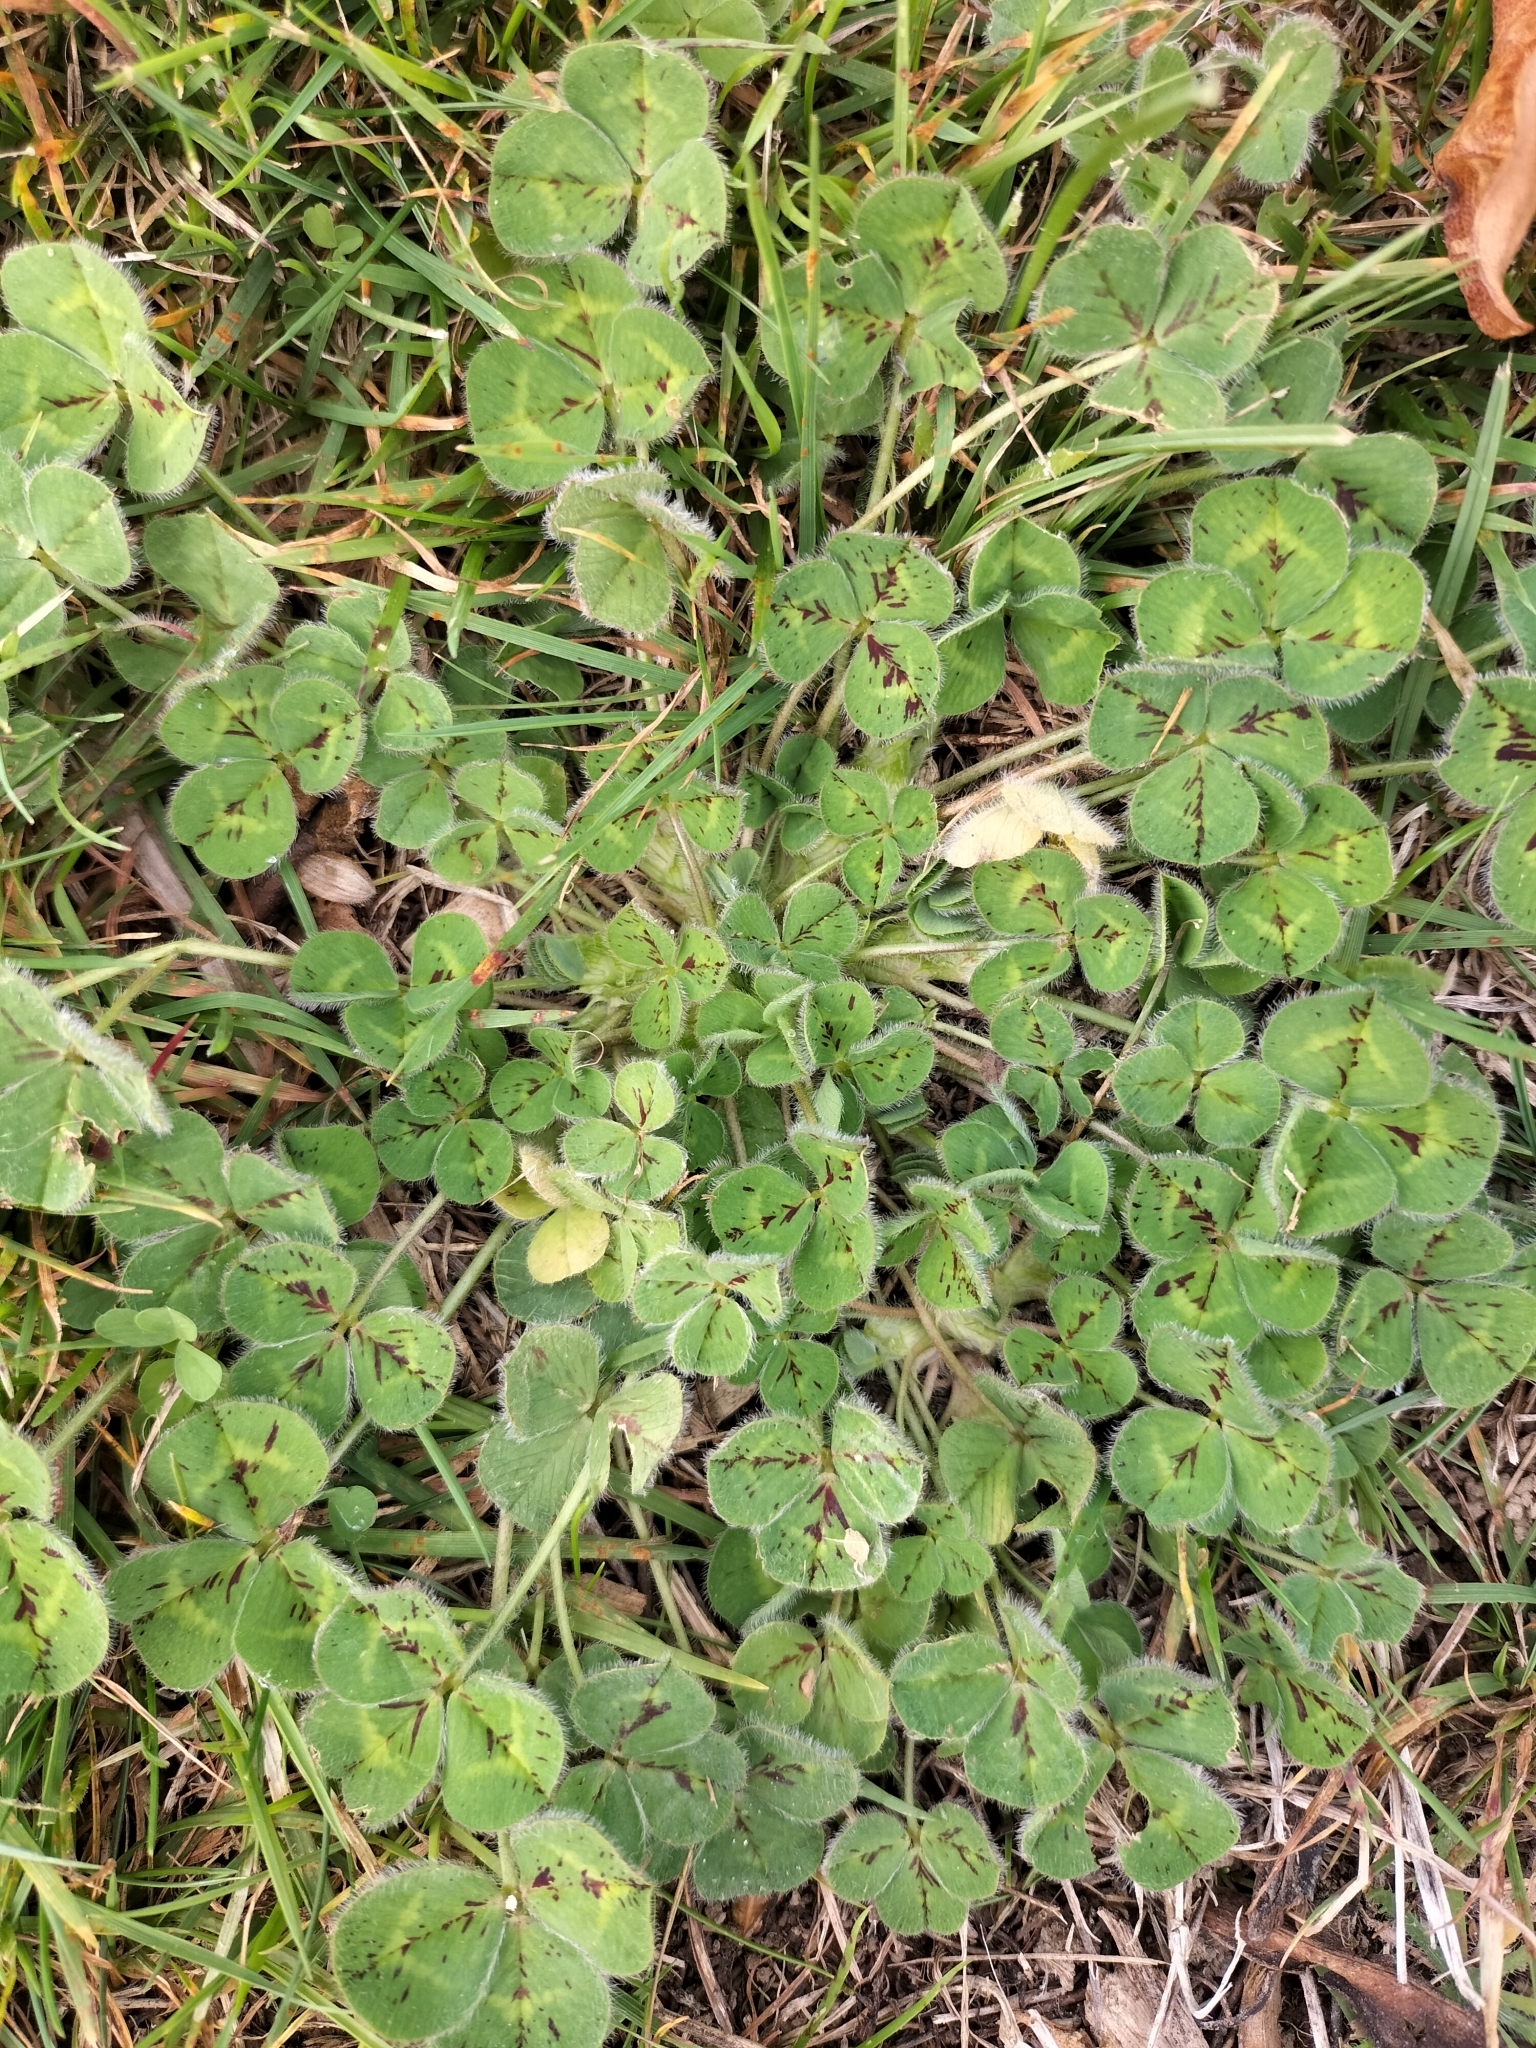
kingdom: Plantae
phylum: Tracheophyta
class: Magnoliopsida
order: Fabales
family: Fabaceae
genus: Trifolium
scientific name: Trifolium subterraneum
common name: Subterranean clover
